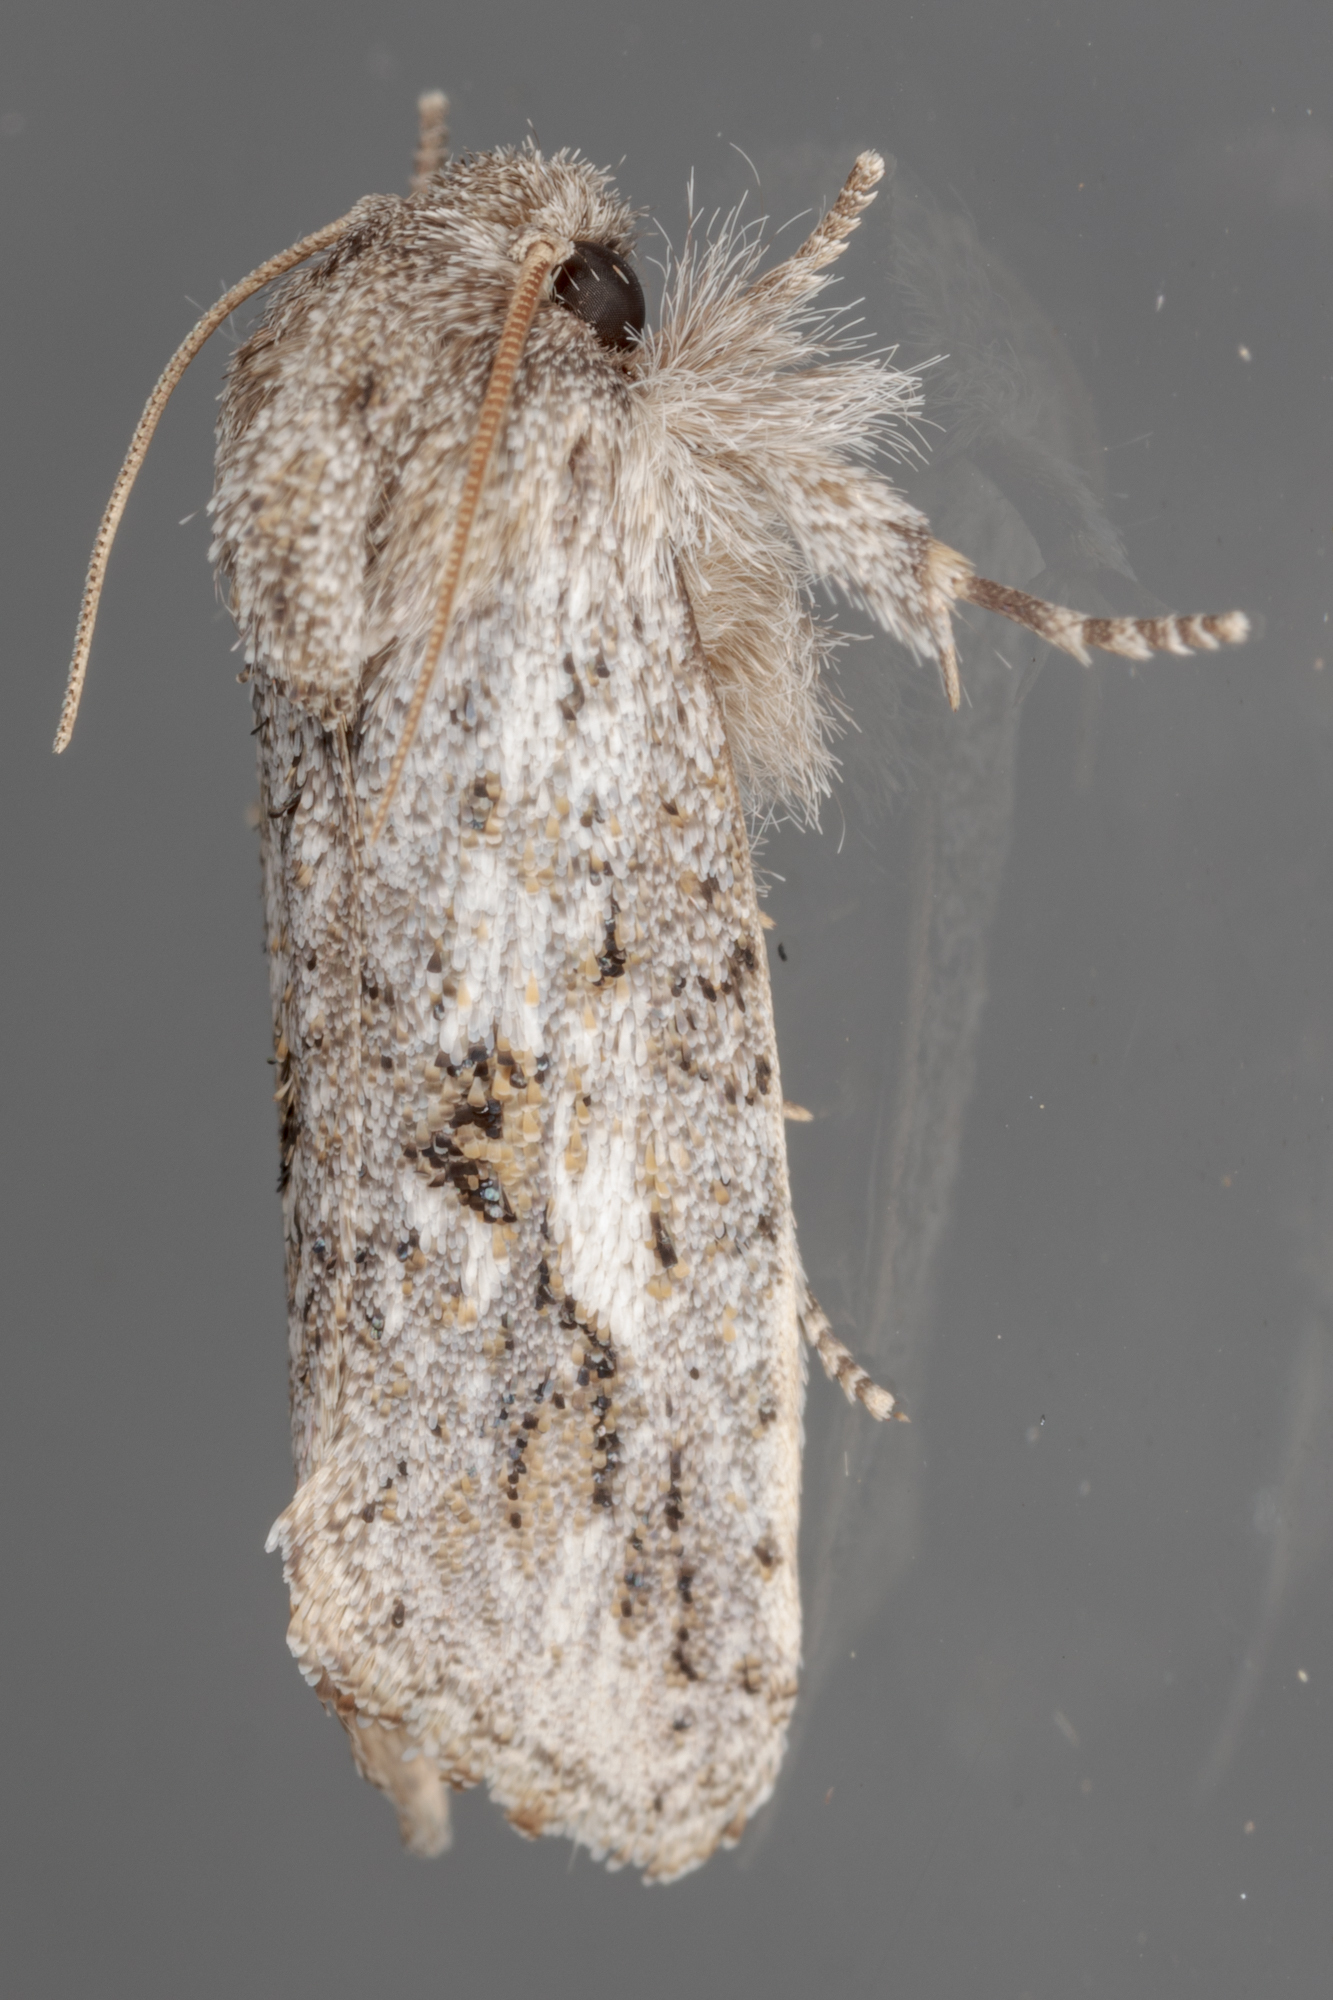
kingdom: Animalia
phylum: Arthropoda
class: Insecta
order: Lepidoptera
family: Tineidae
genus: Acrolophus
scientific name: Acrolophus griseus
